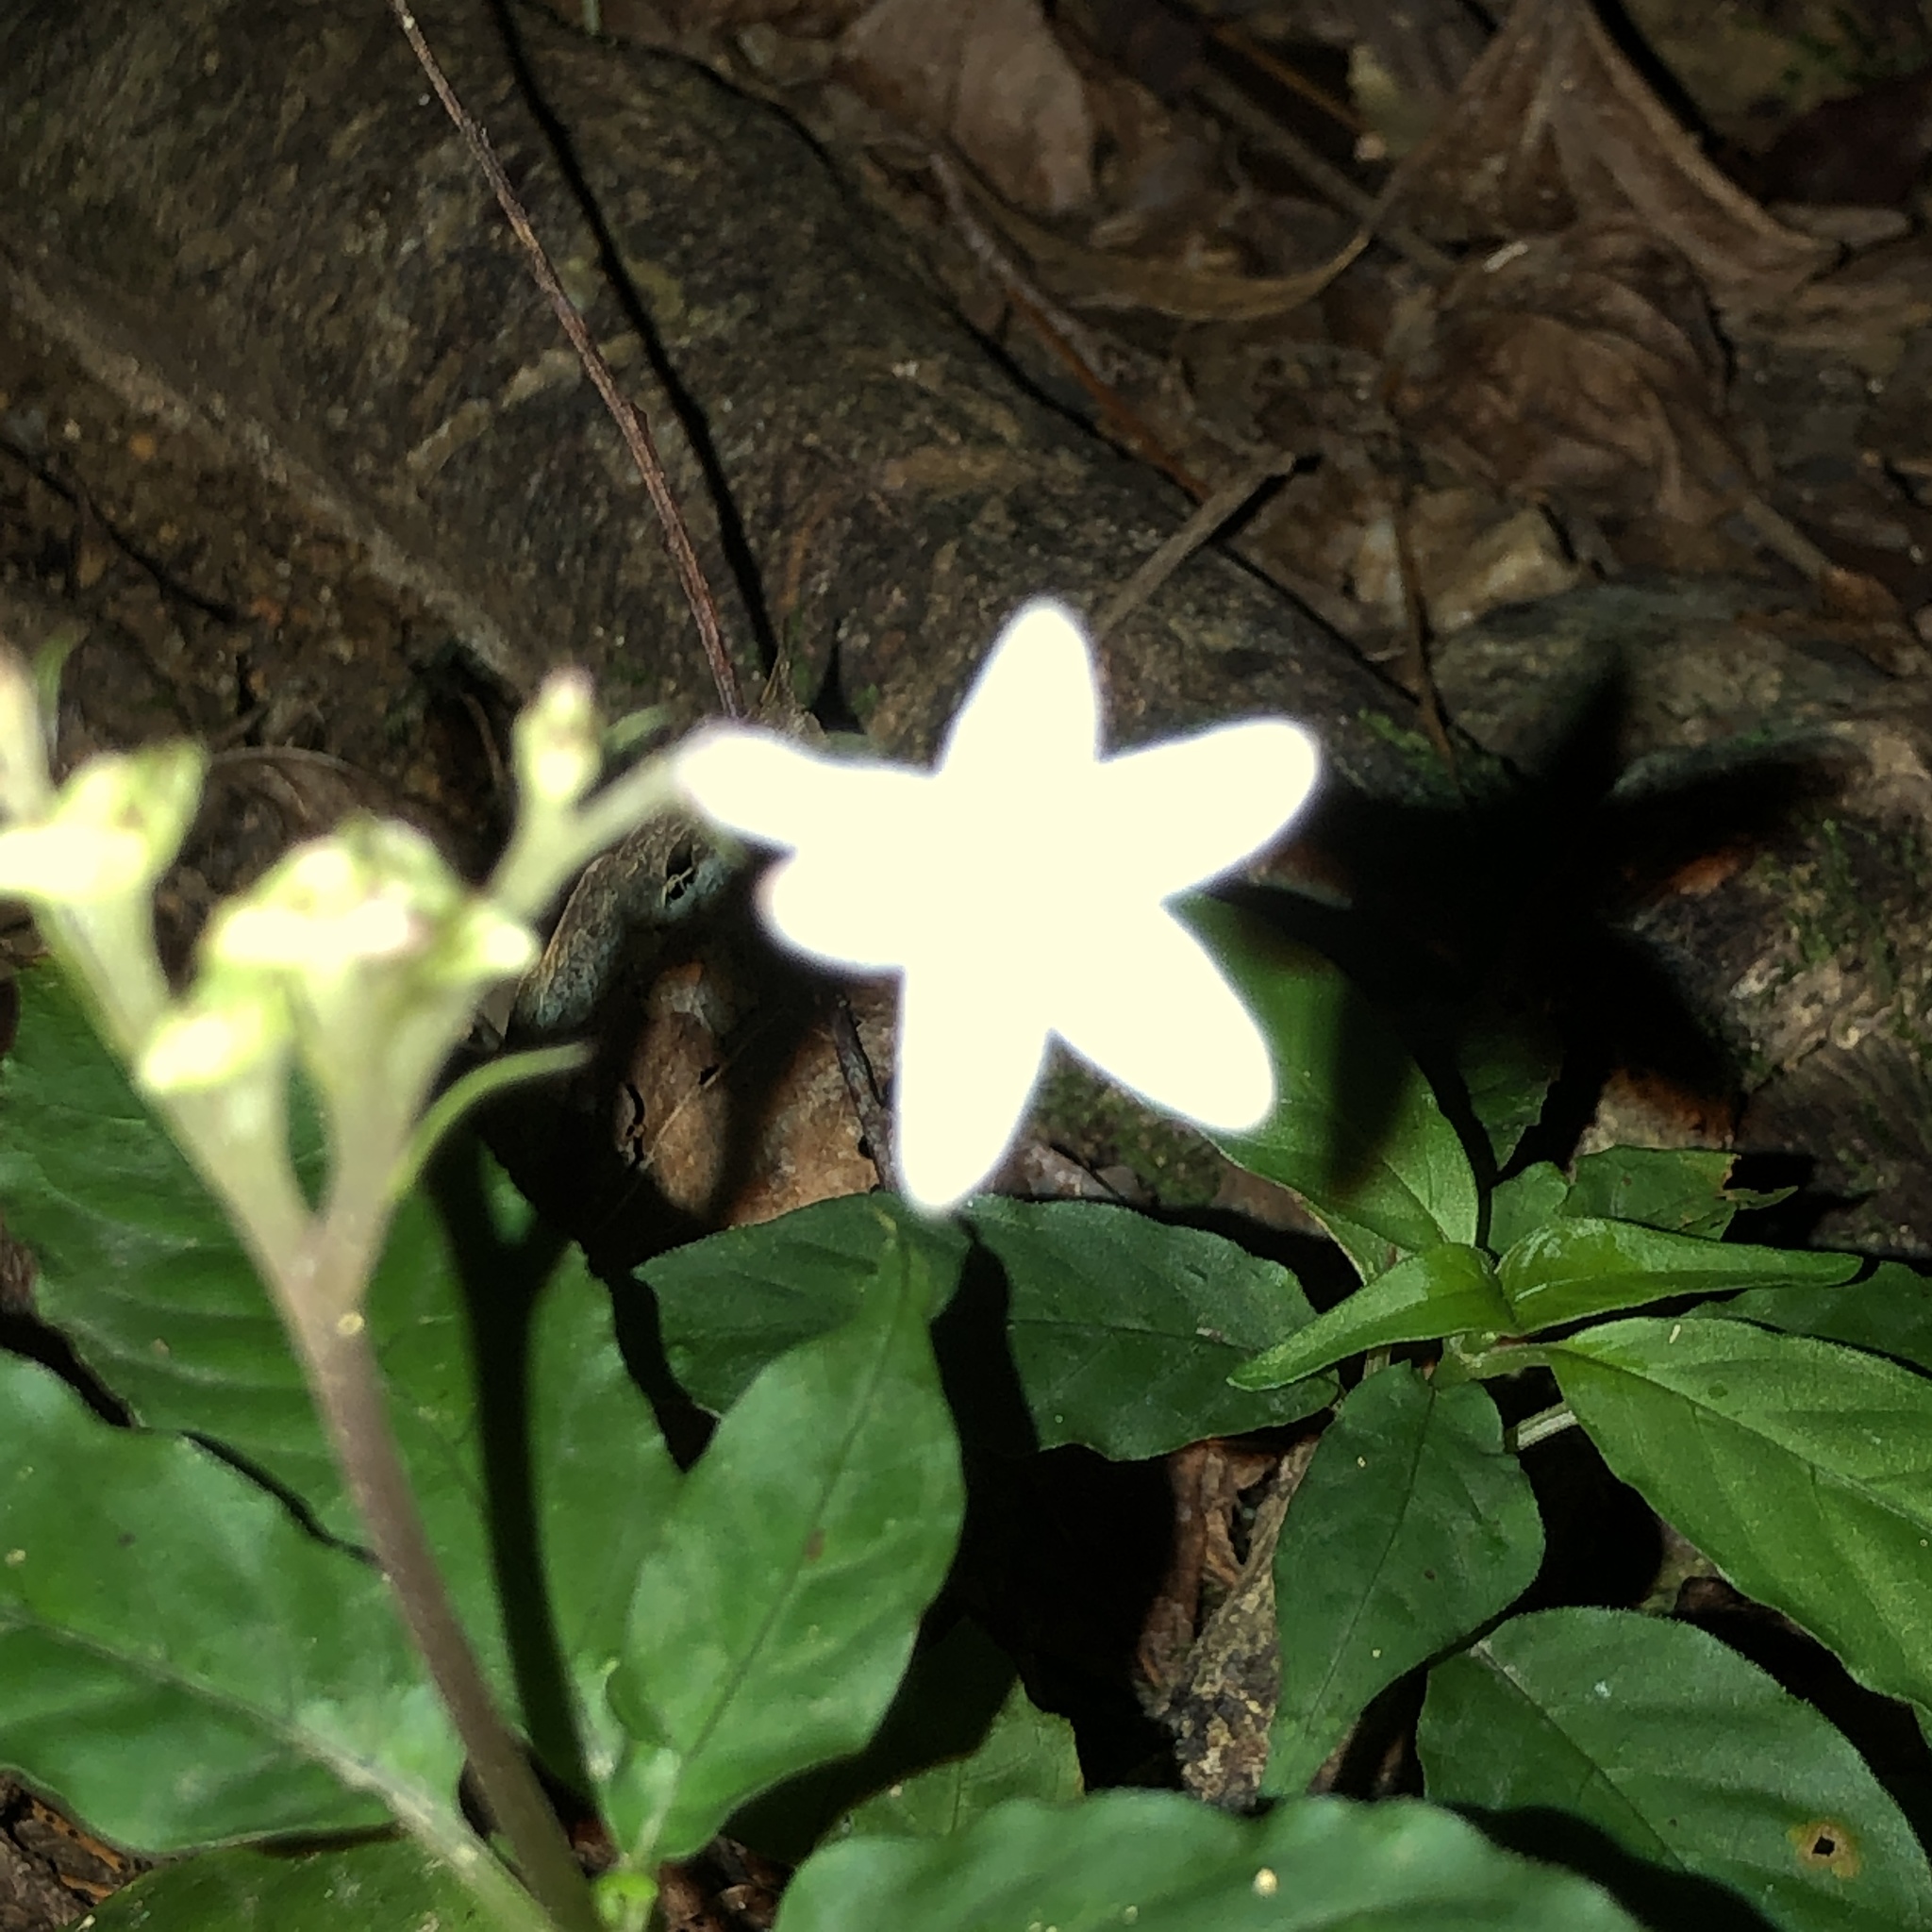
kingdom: Plantae
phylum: Tracheophyta
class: Magnoliopsida
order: Gentianales
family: Rubiaceae
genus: Ophiorrhiza
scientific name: Ophiorrhiza japonica
